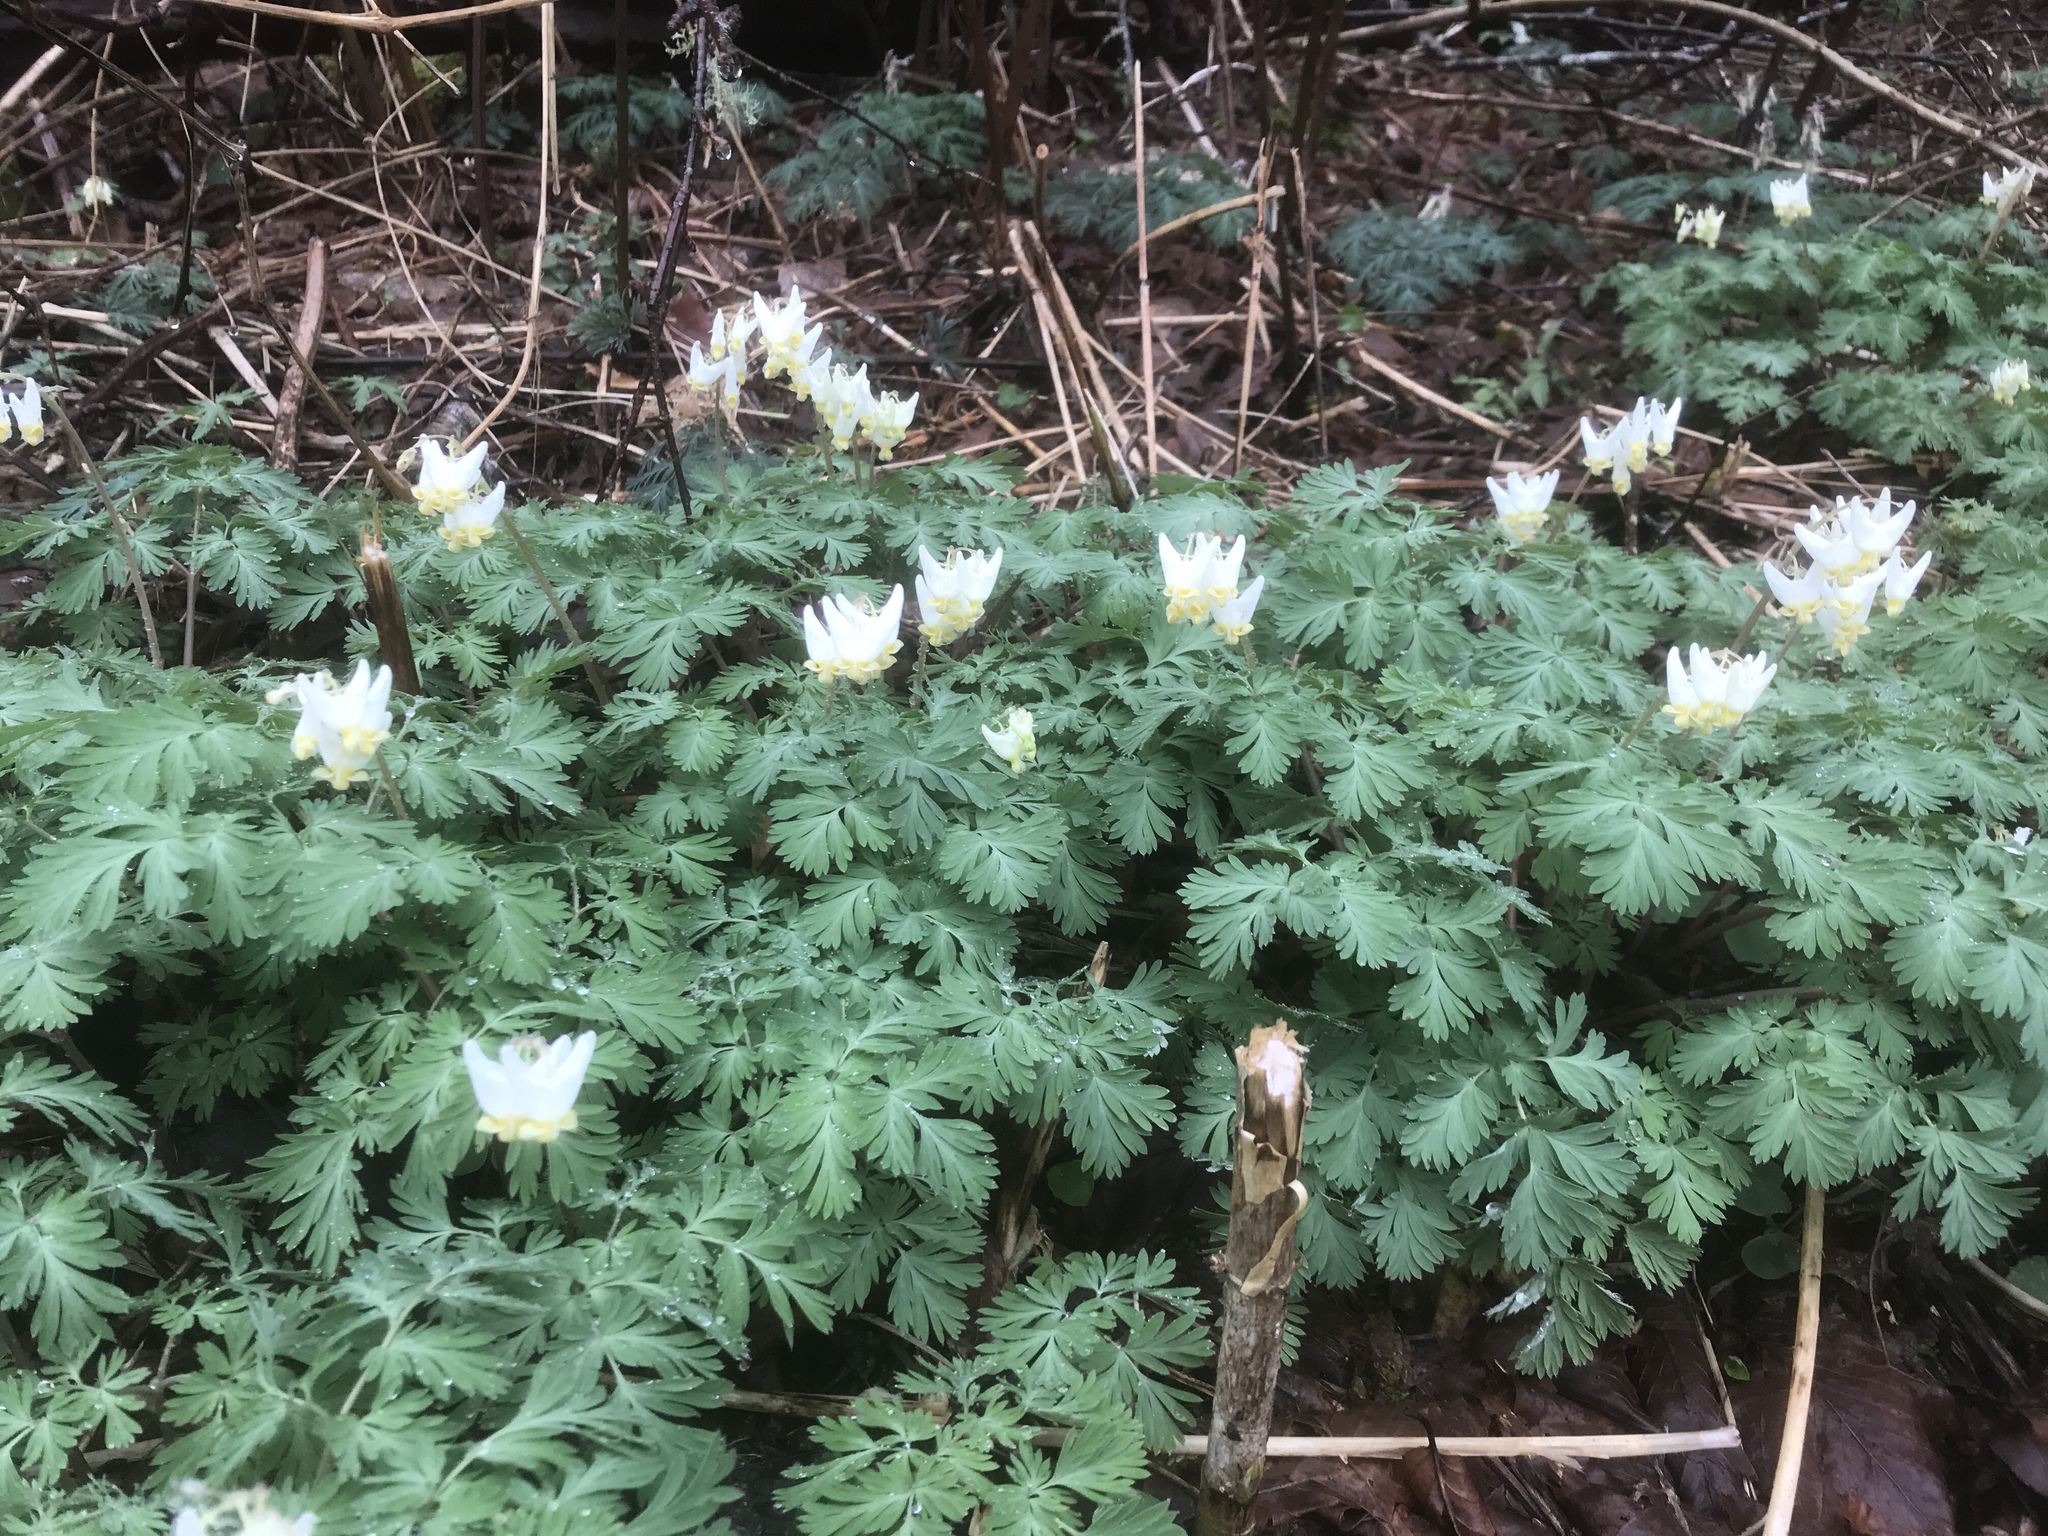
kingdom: Plantae
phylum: Tracheophyta
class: Magnoliopsida
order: Ranunculales
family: Papaveraceae
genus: Dicentra
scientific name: Dicentra cucullaria
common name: Dutchman's breeches
